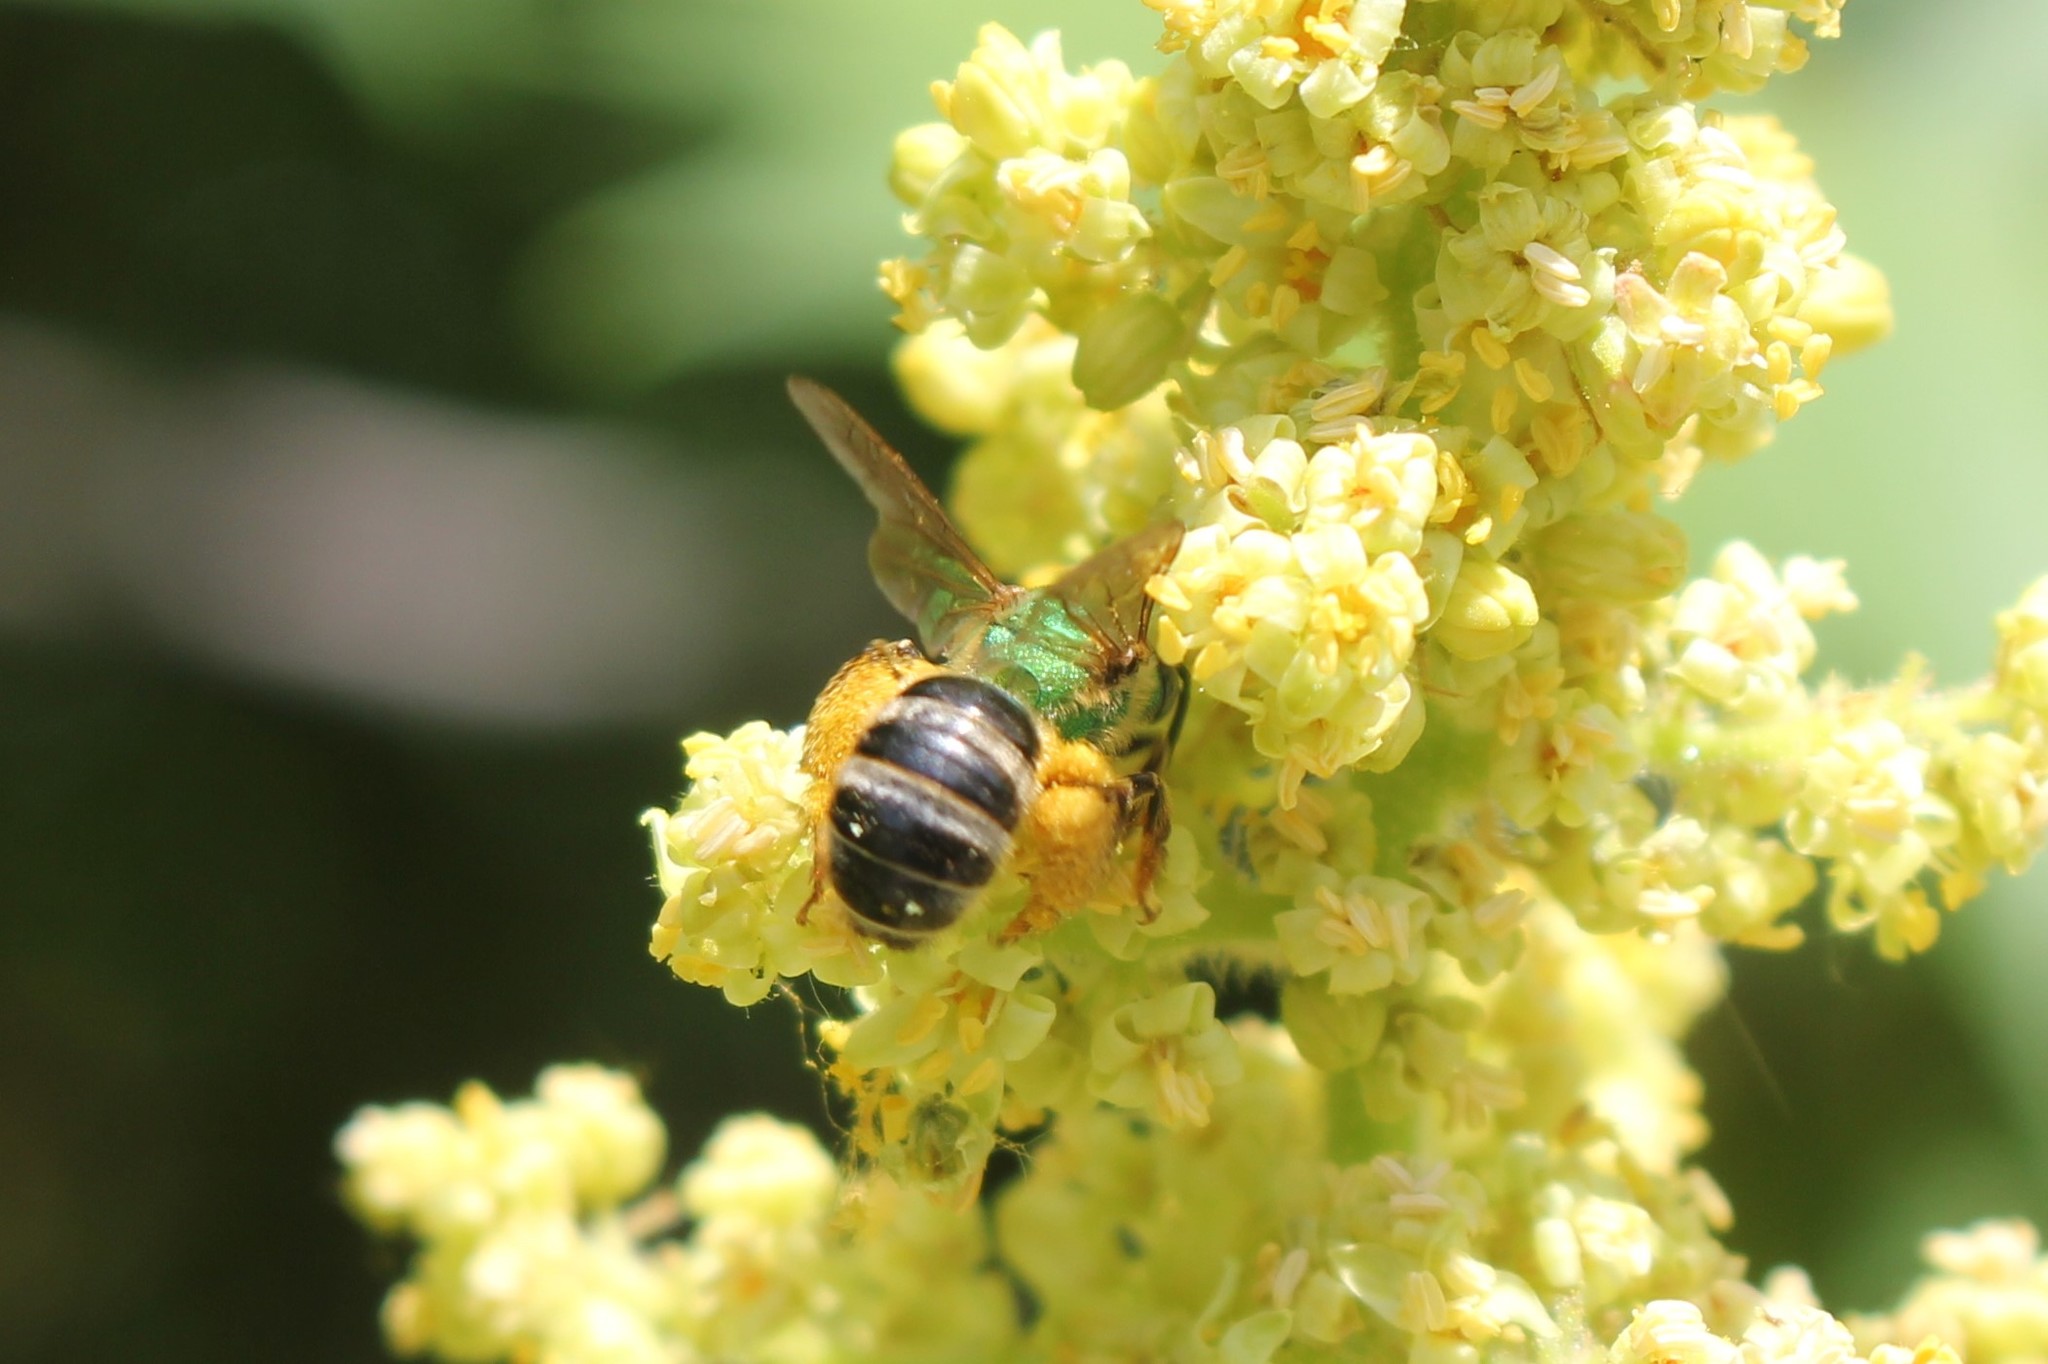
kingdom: Animalia
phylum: Arthropoda
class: Insecta
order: Hymenoptera
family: Halictidae
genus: Agapostemon
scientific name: Agapostemon virescens
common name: Bicolored striped sweat bee
